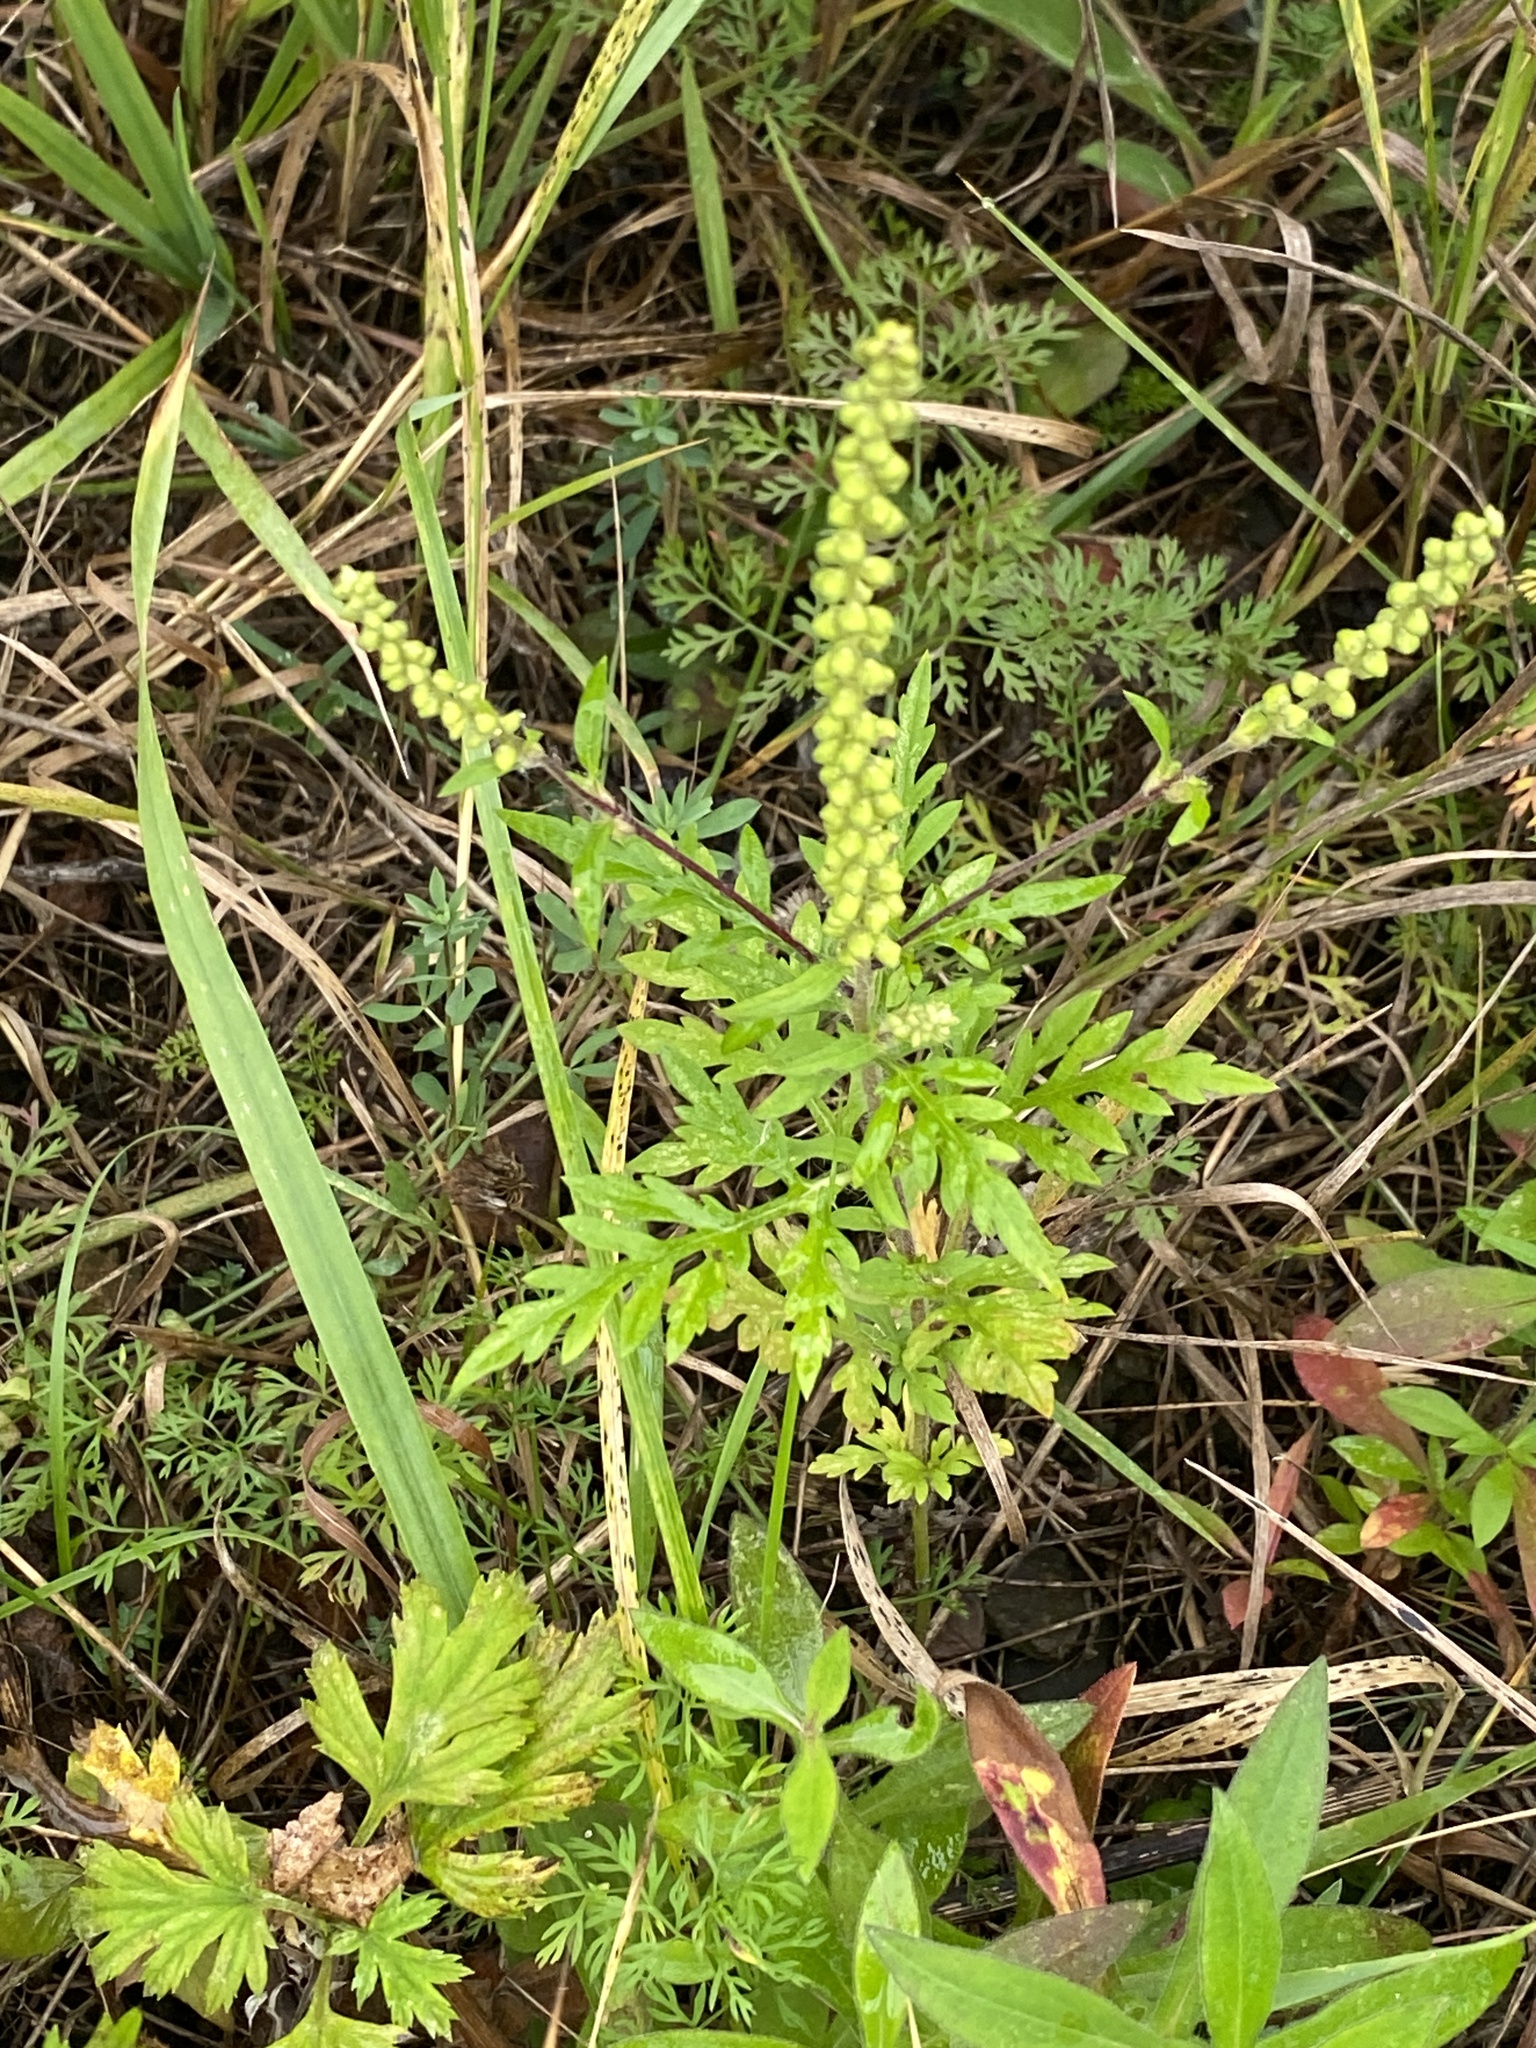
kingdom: Plantae
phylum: Tracheophyta
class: Magnoliopsida
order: Asterales
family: Asteraceae
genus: Ambrosia
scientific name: Ambrosia artemisiifolia
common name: Annual ragweed
